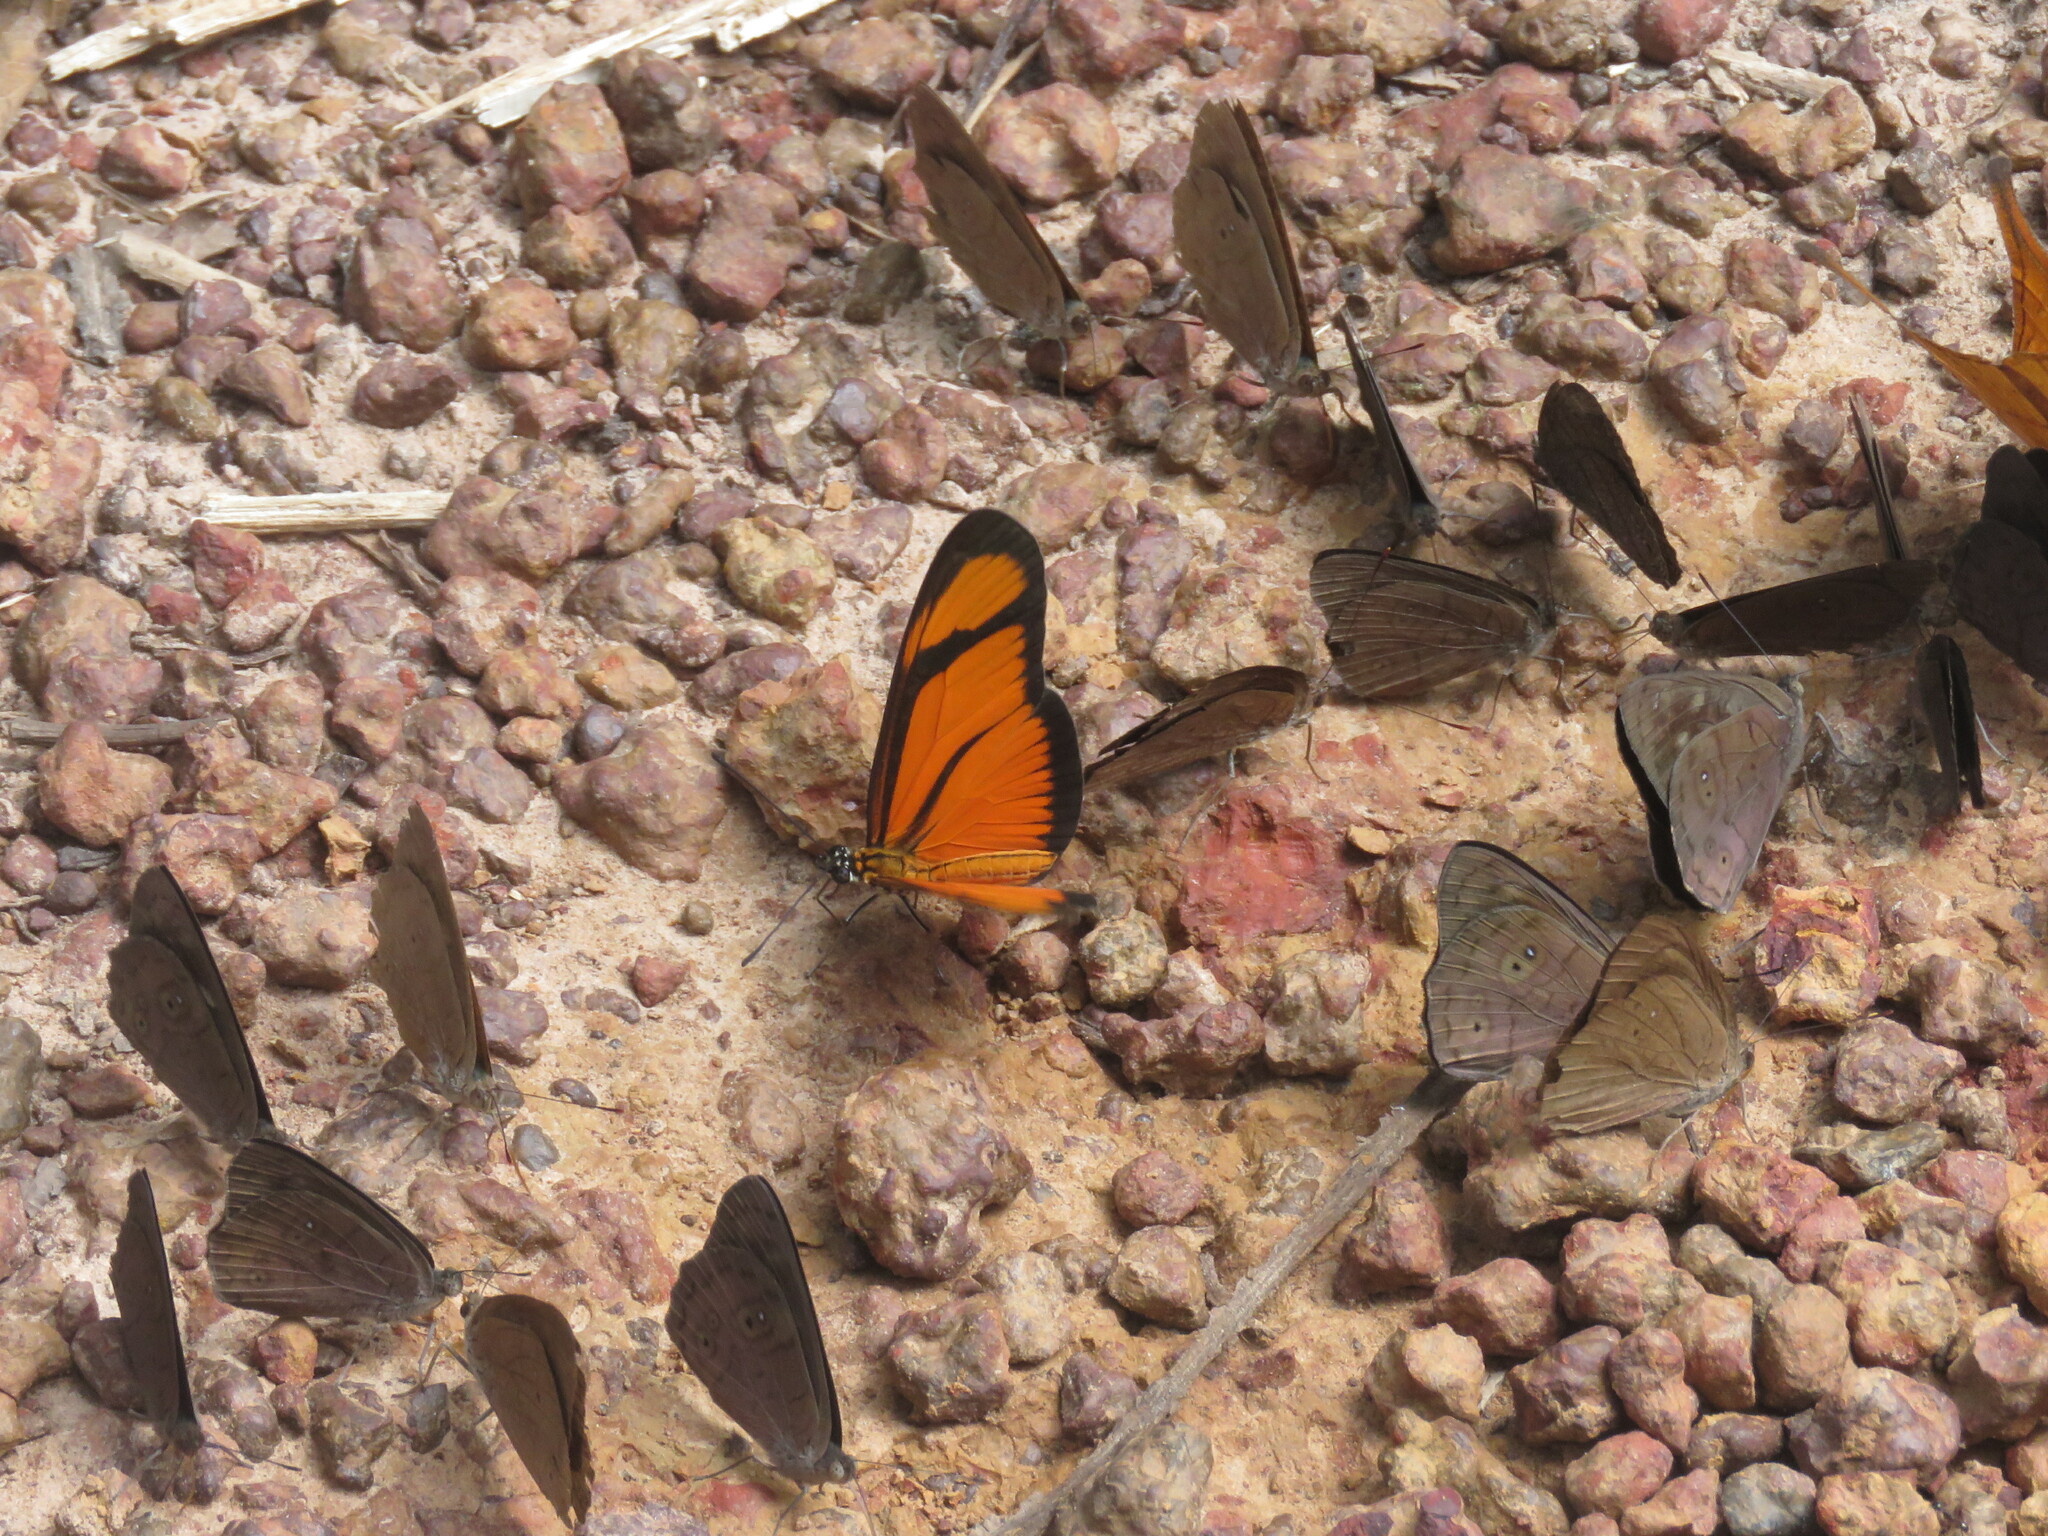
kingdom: Animalia
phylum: Arthropoda
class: Insecta
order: Lepidoptera
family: Nymphalidae
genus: Heliconius
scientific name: Heliconius aliphera
